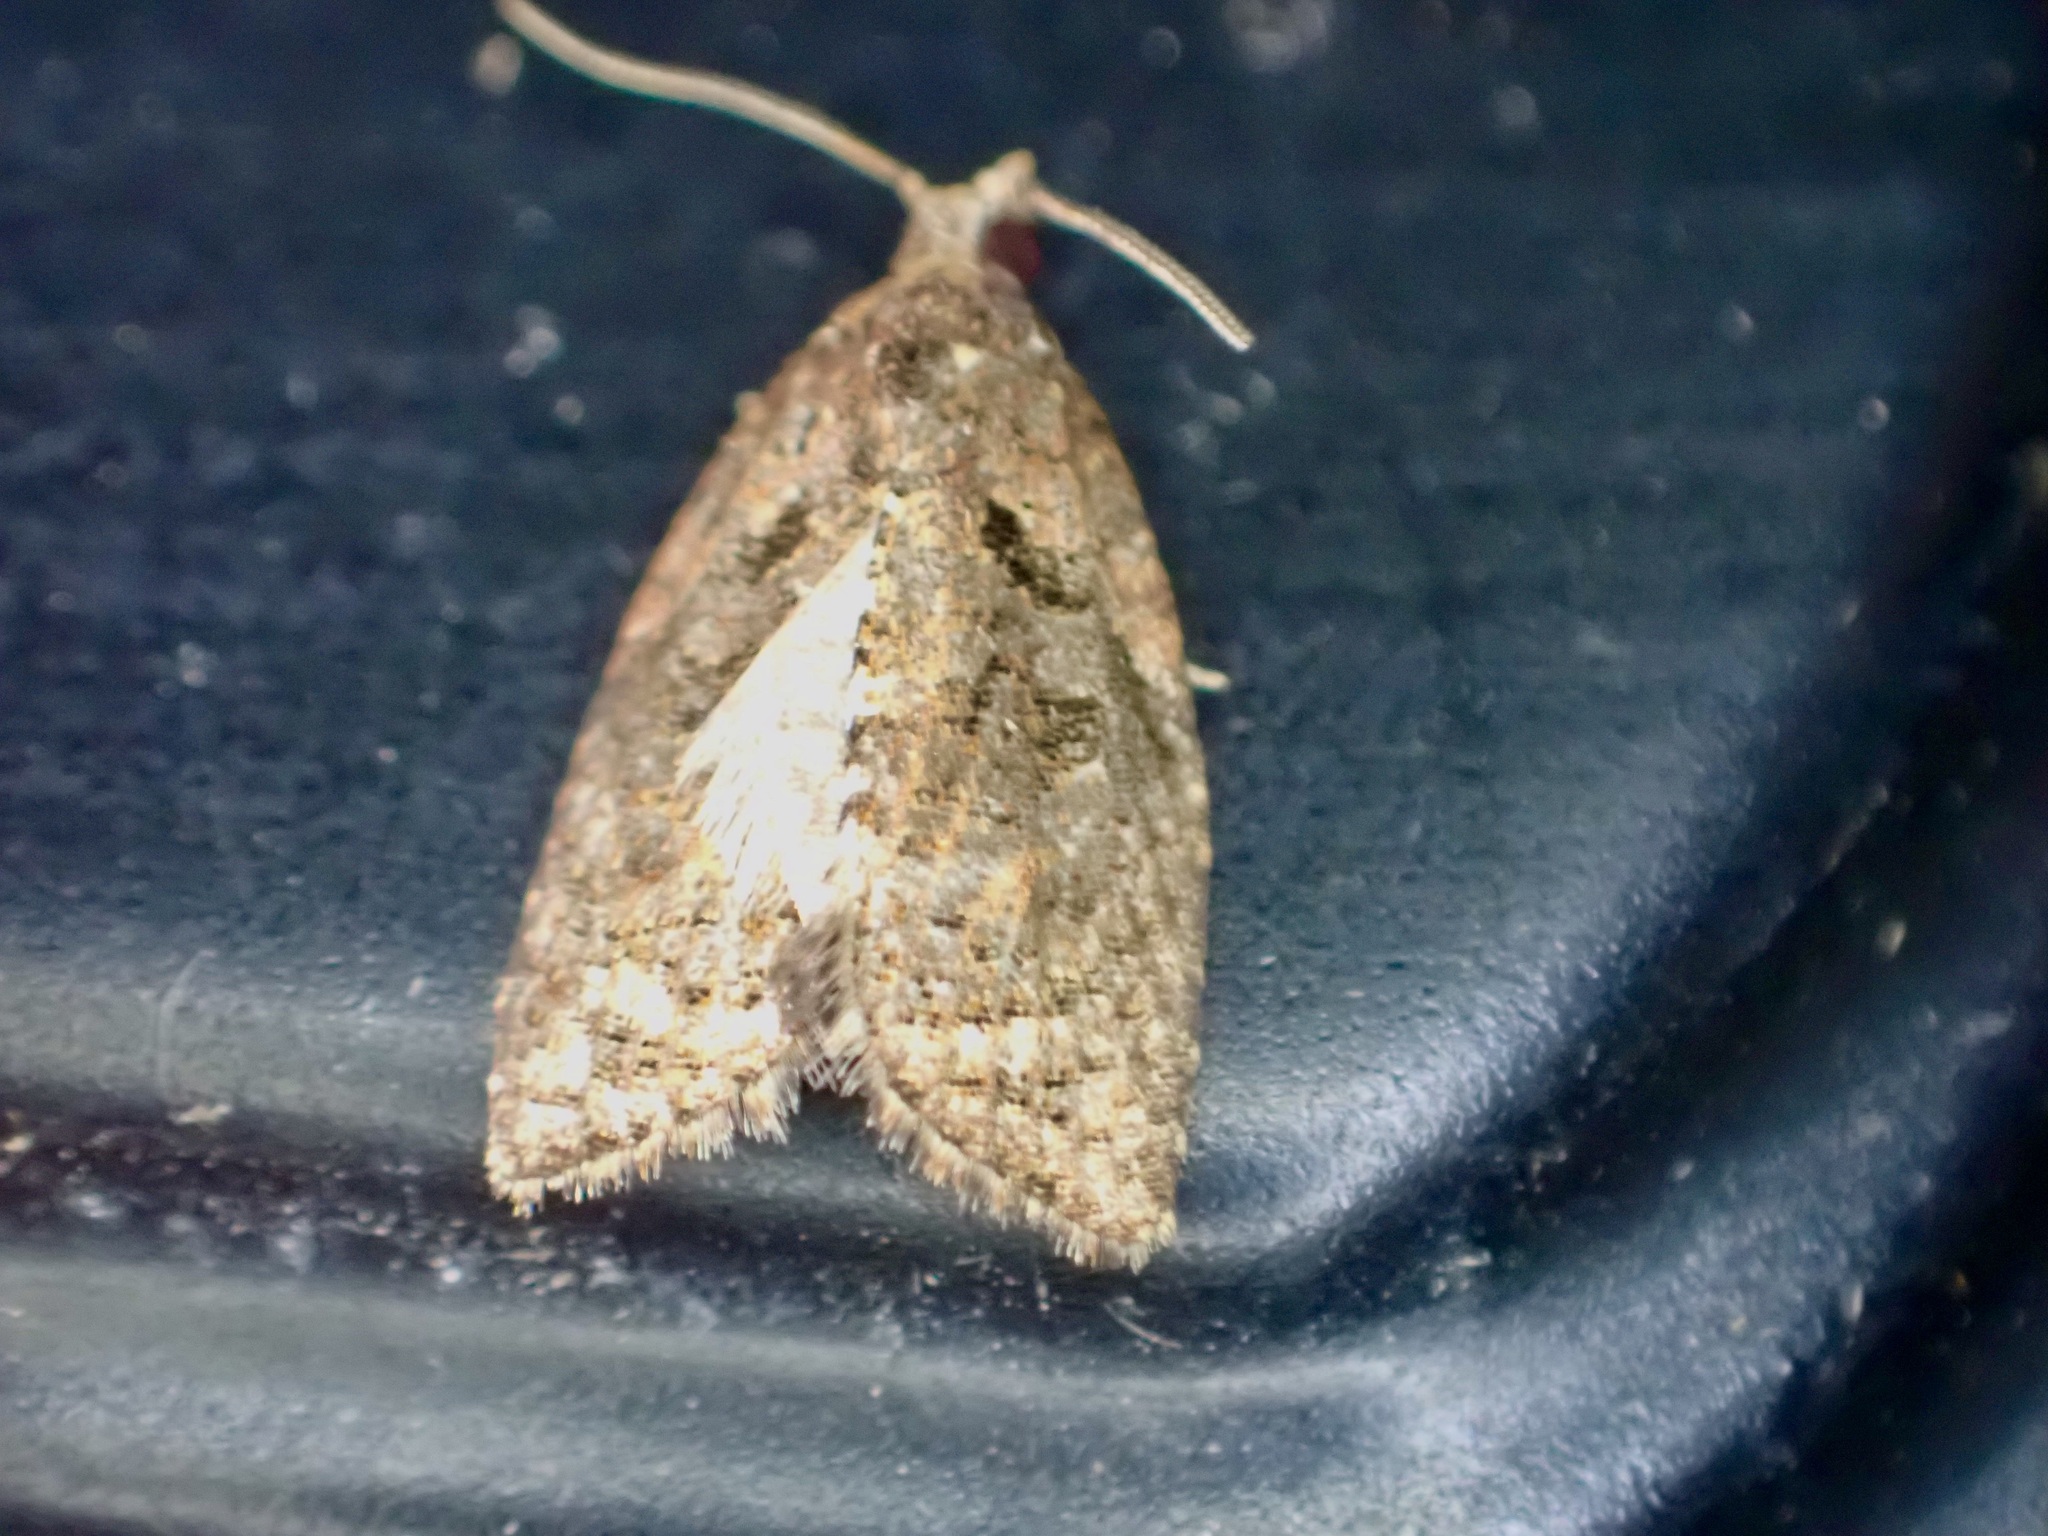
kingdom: Animalia
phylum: Arthropoda
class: Insecta
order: Lepidoptera
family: Tortricidae
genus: Capua
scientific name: Capua intractana
